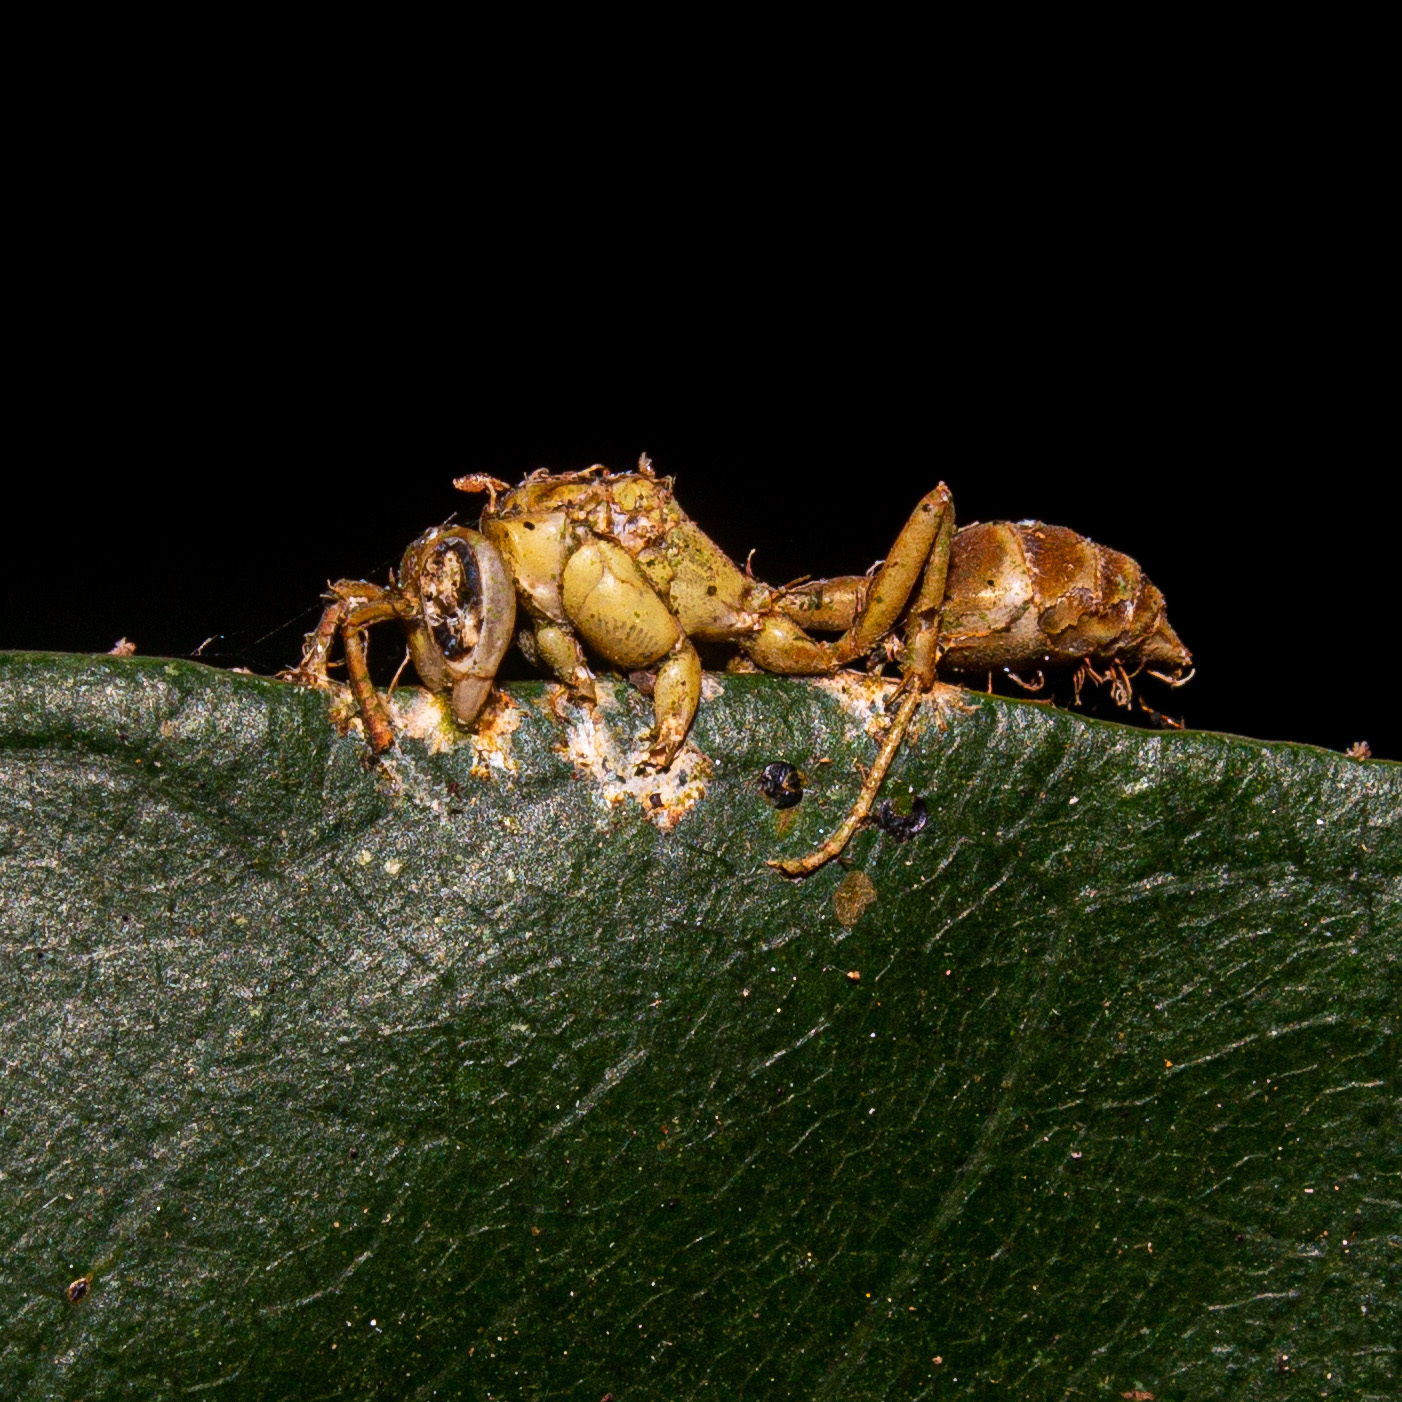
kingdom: Fungi
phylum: Ascomycota
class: Sordariomycetes
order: Hypocreales
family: Ophiocordycipitaceae
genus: Ophiocordyceps
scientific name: Ophiocordyceps humbertii
